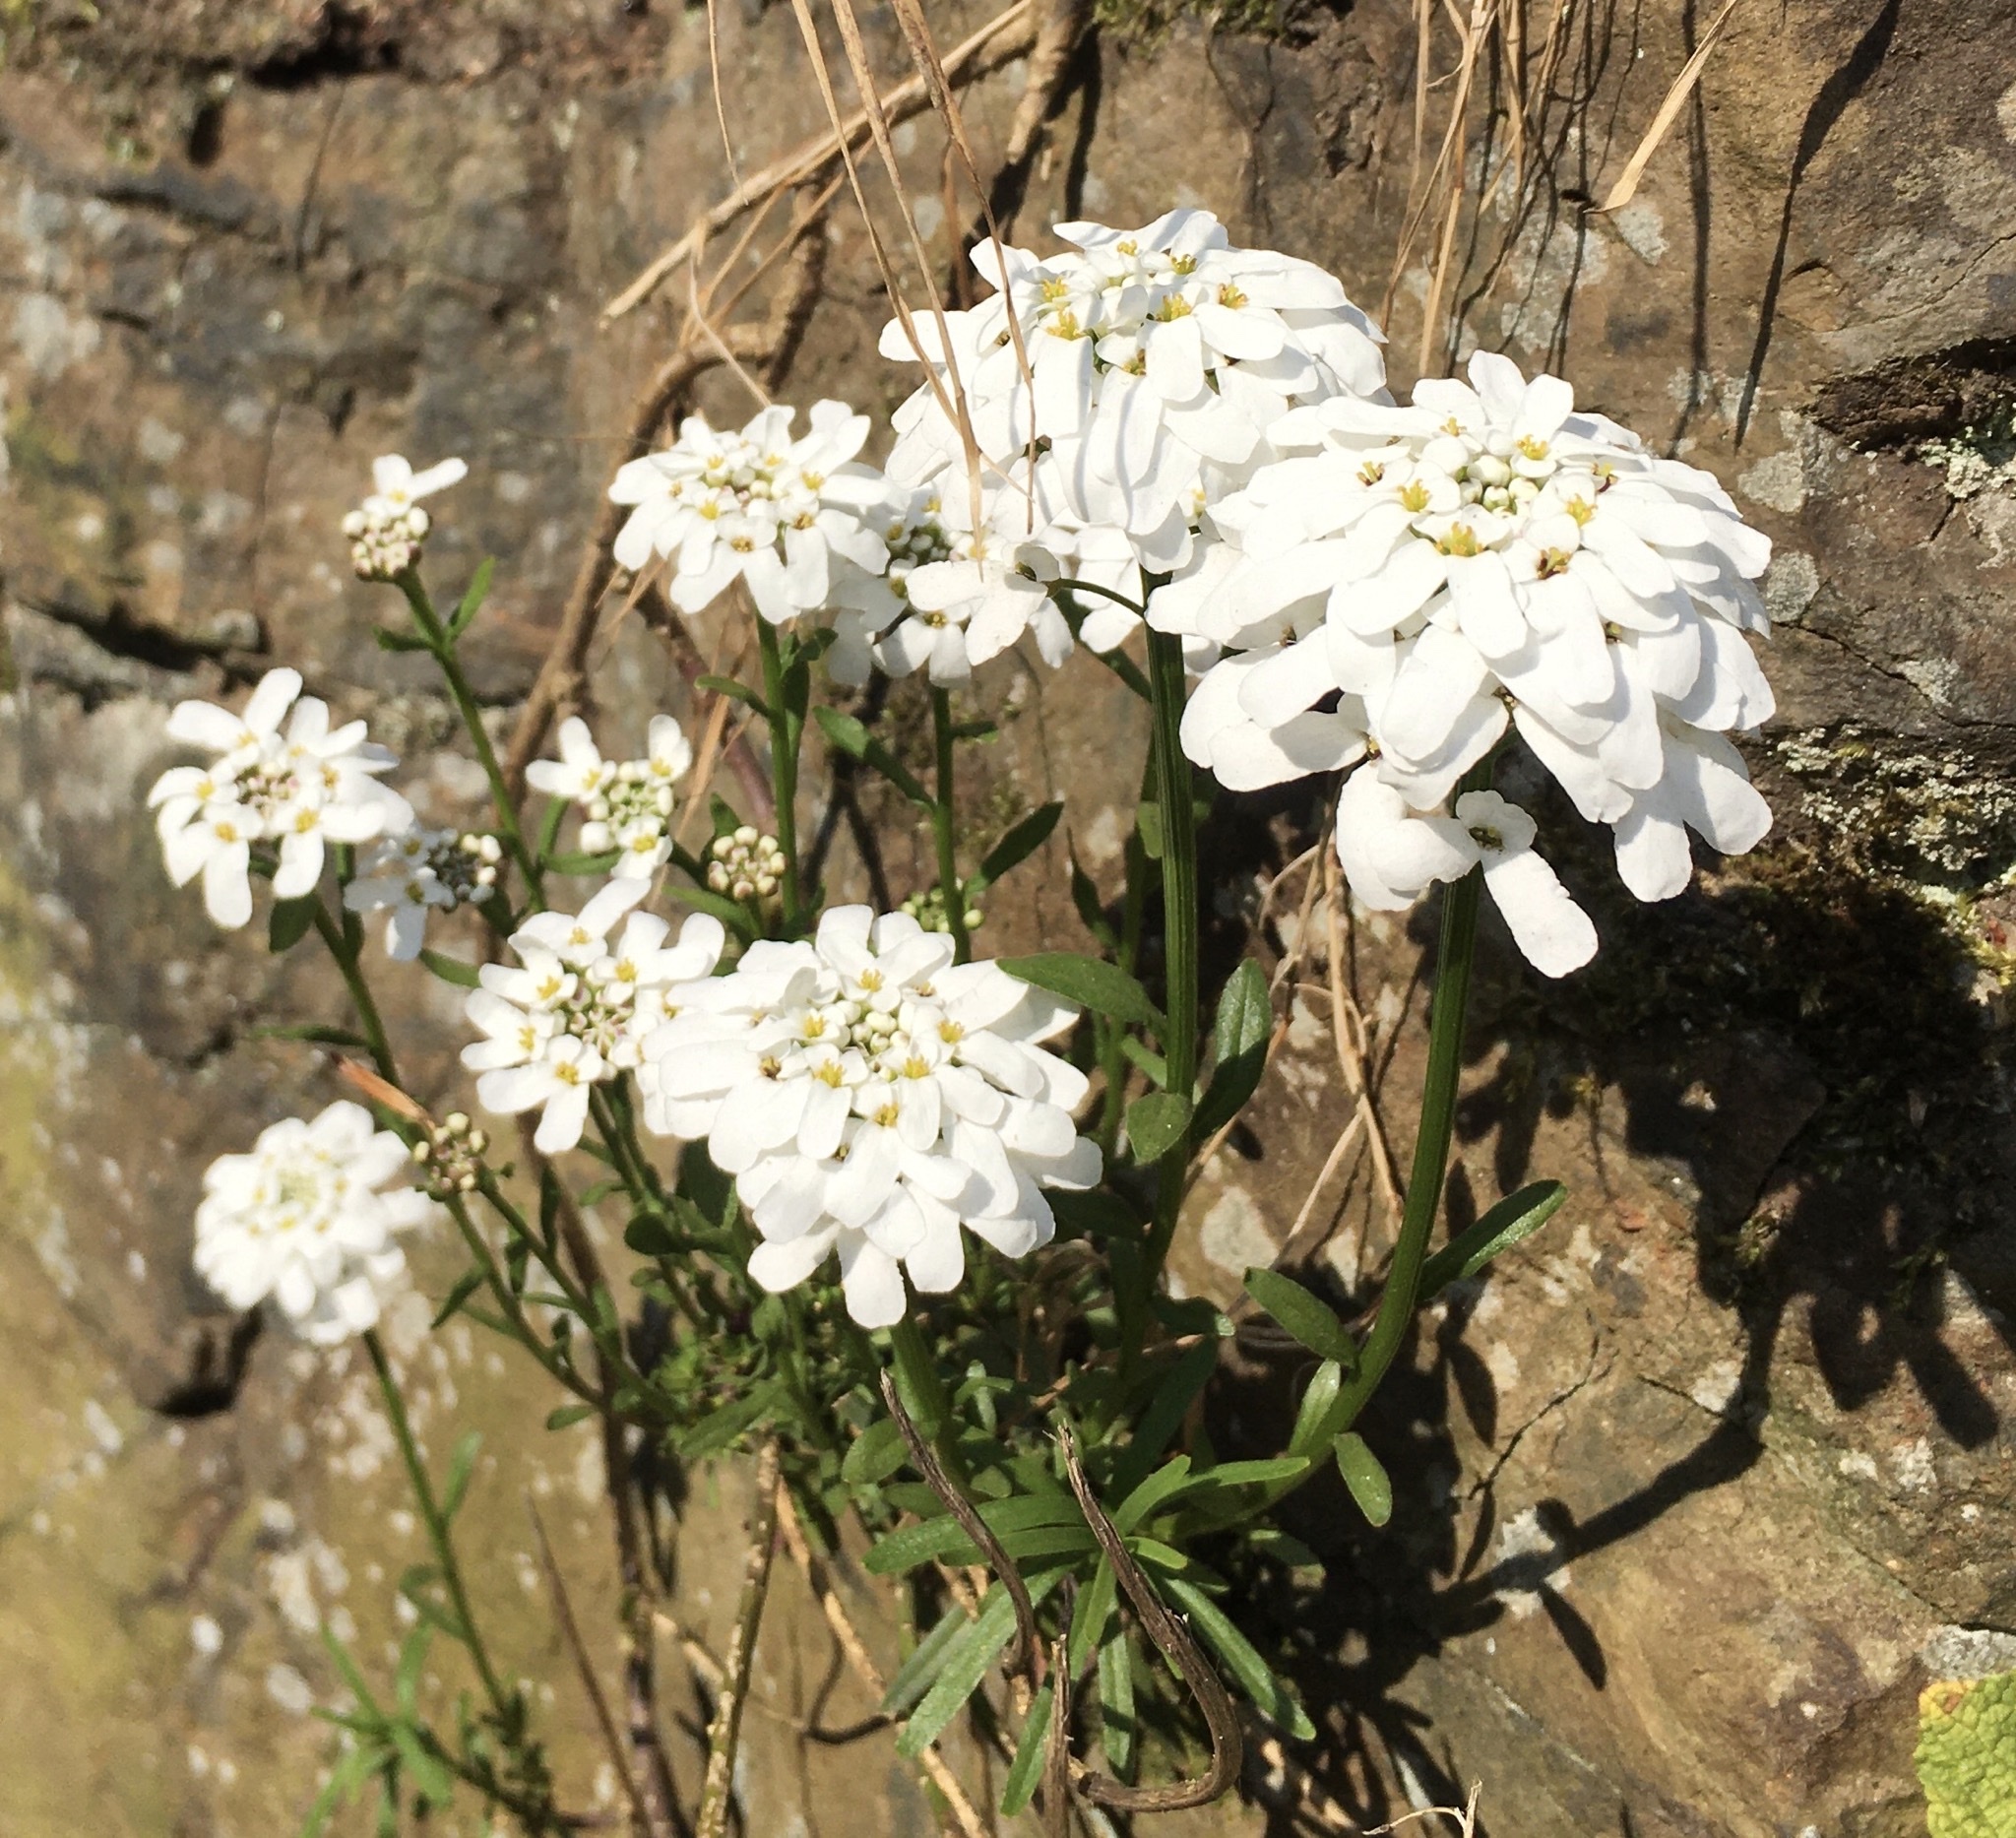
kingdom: Plantae
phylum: Tracheophyta
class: Magnoliopsida
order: Brassicales
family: Brassicaceae
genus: Iberis
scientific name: Iberis sempervirens
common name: Evergreen candytuft
